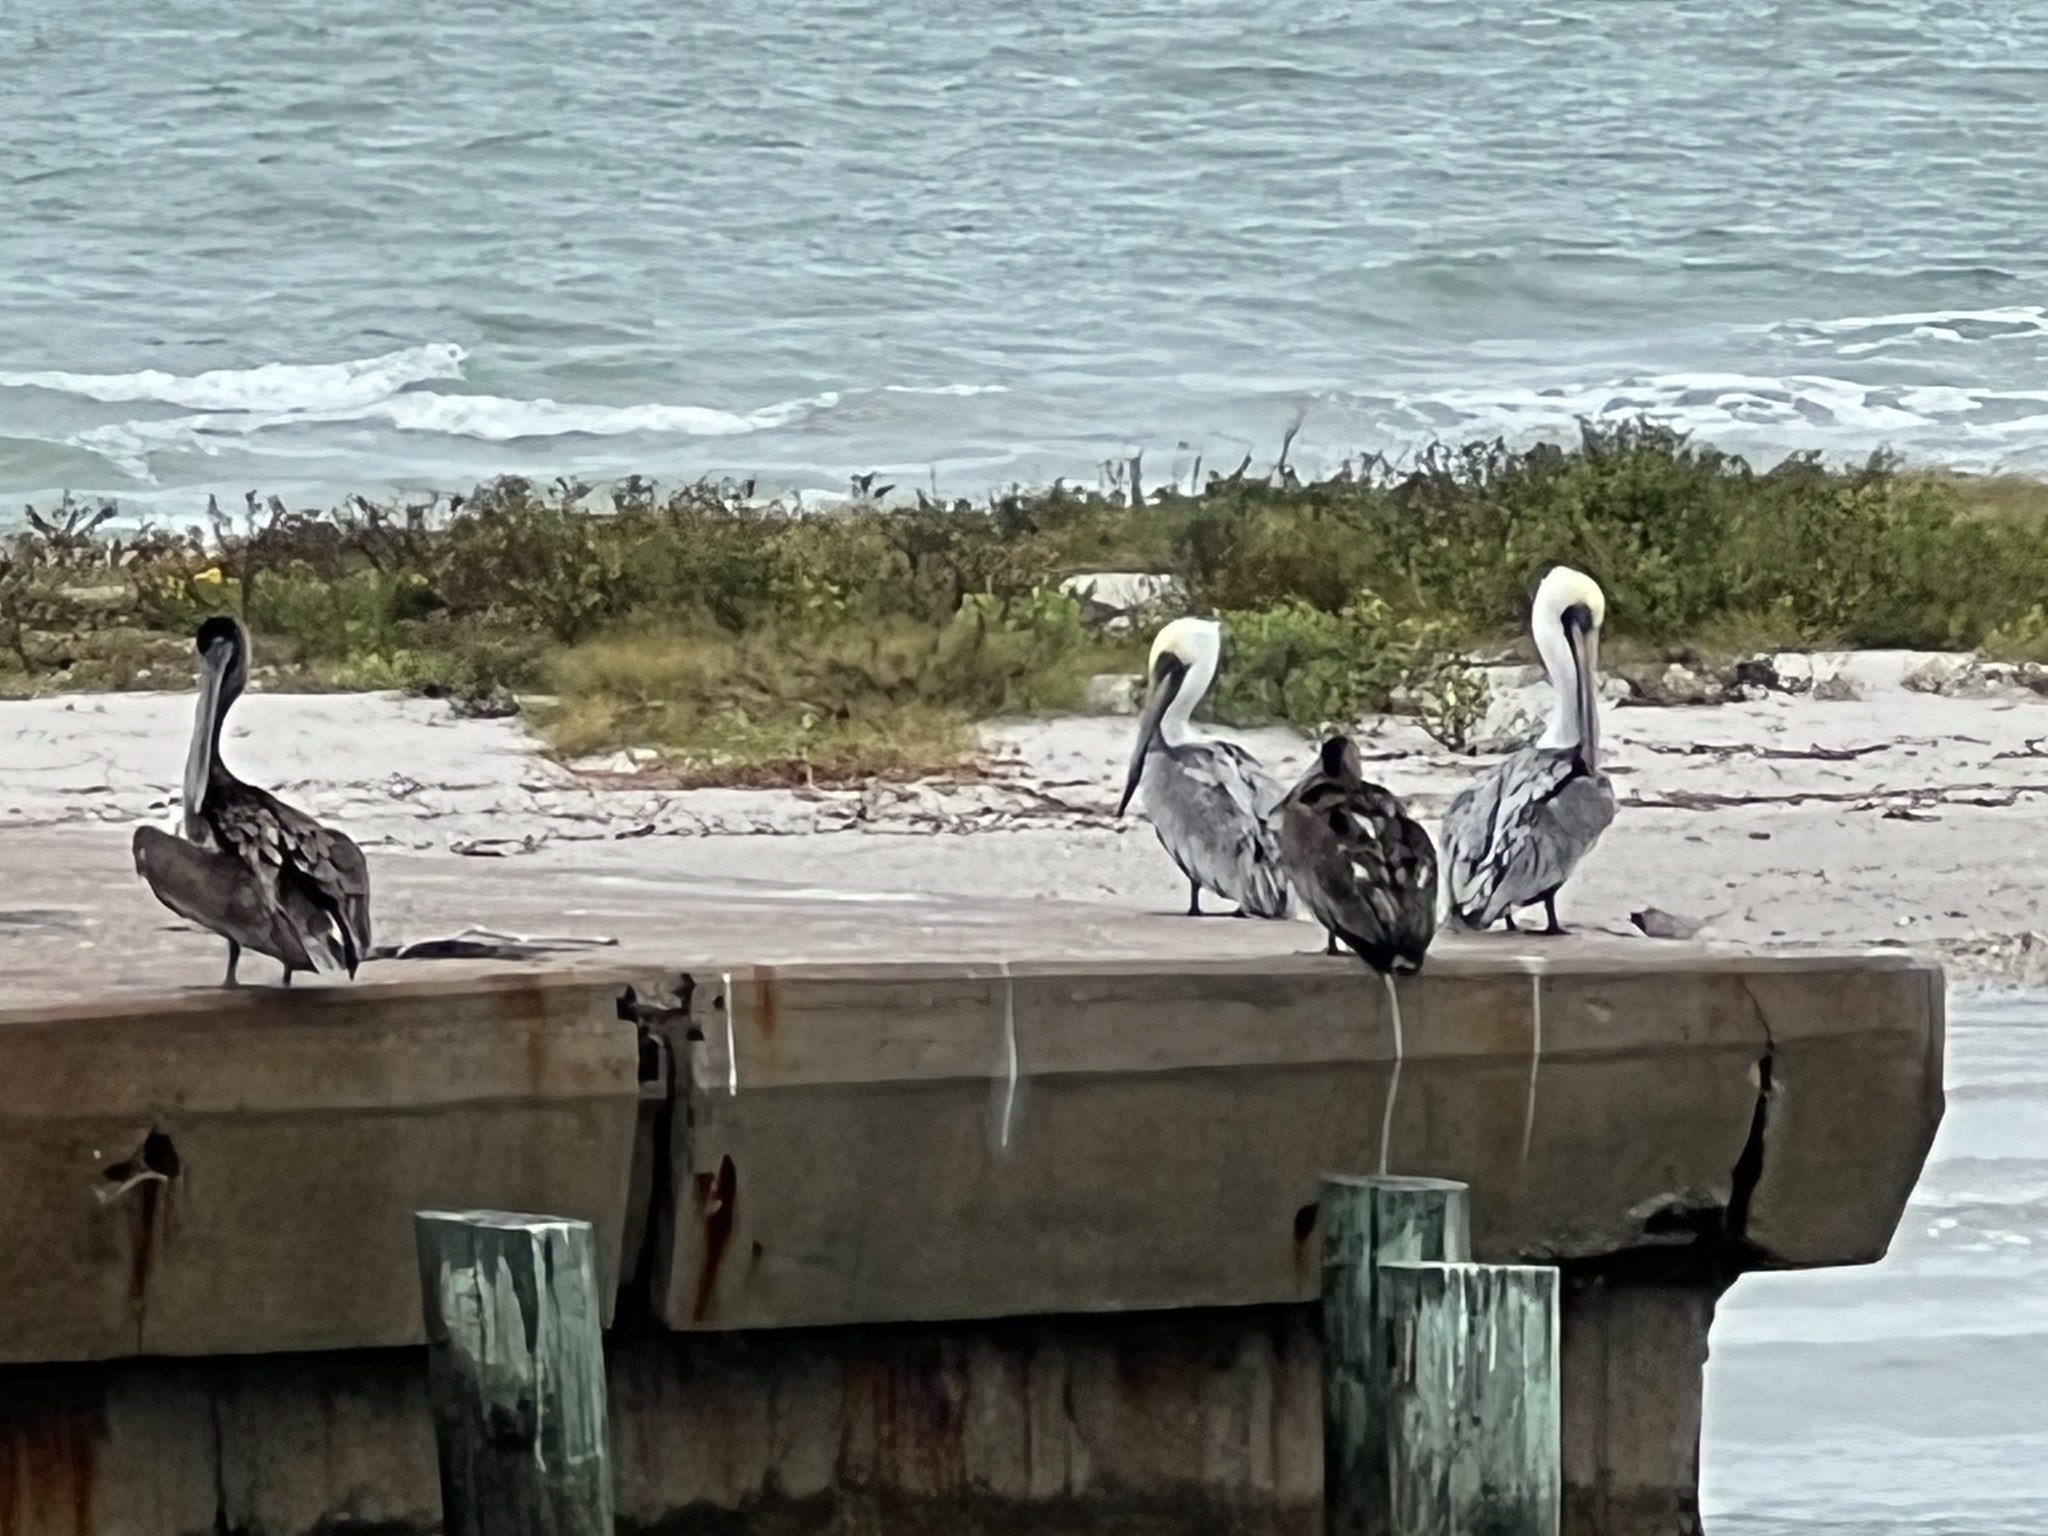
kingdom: Animalia
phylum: Chordata
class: Aves
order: Pelecaniformes
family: Pelecanidae
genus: Pelecanus
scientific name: Pelecanus occidentalis
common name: Brown pelican
